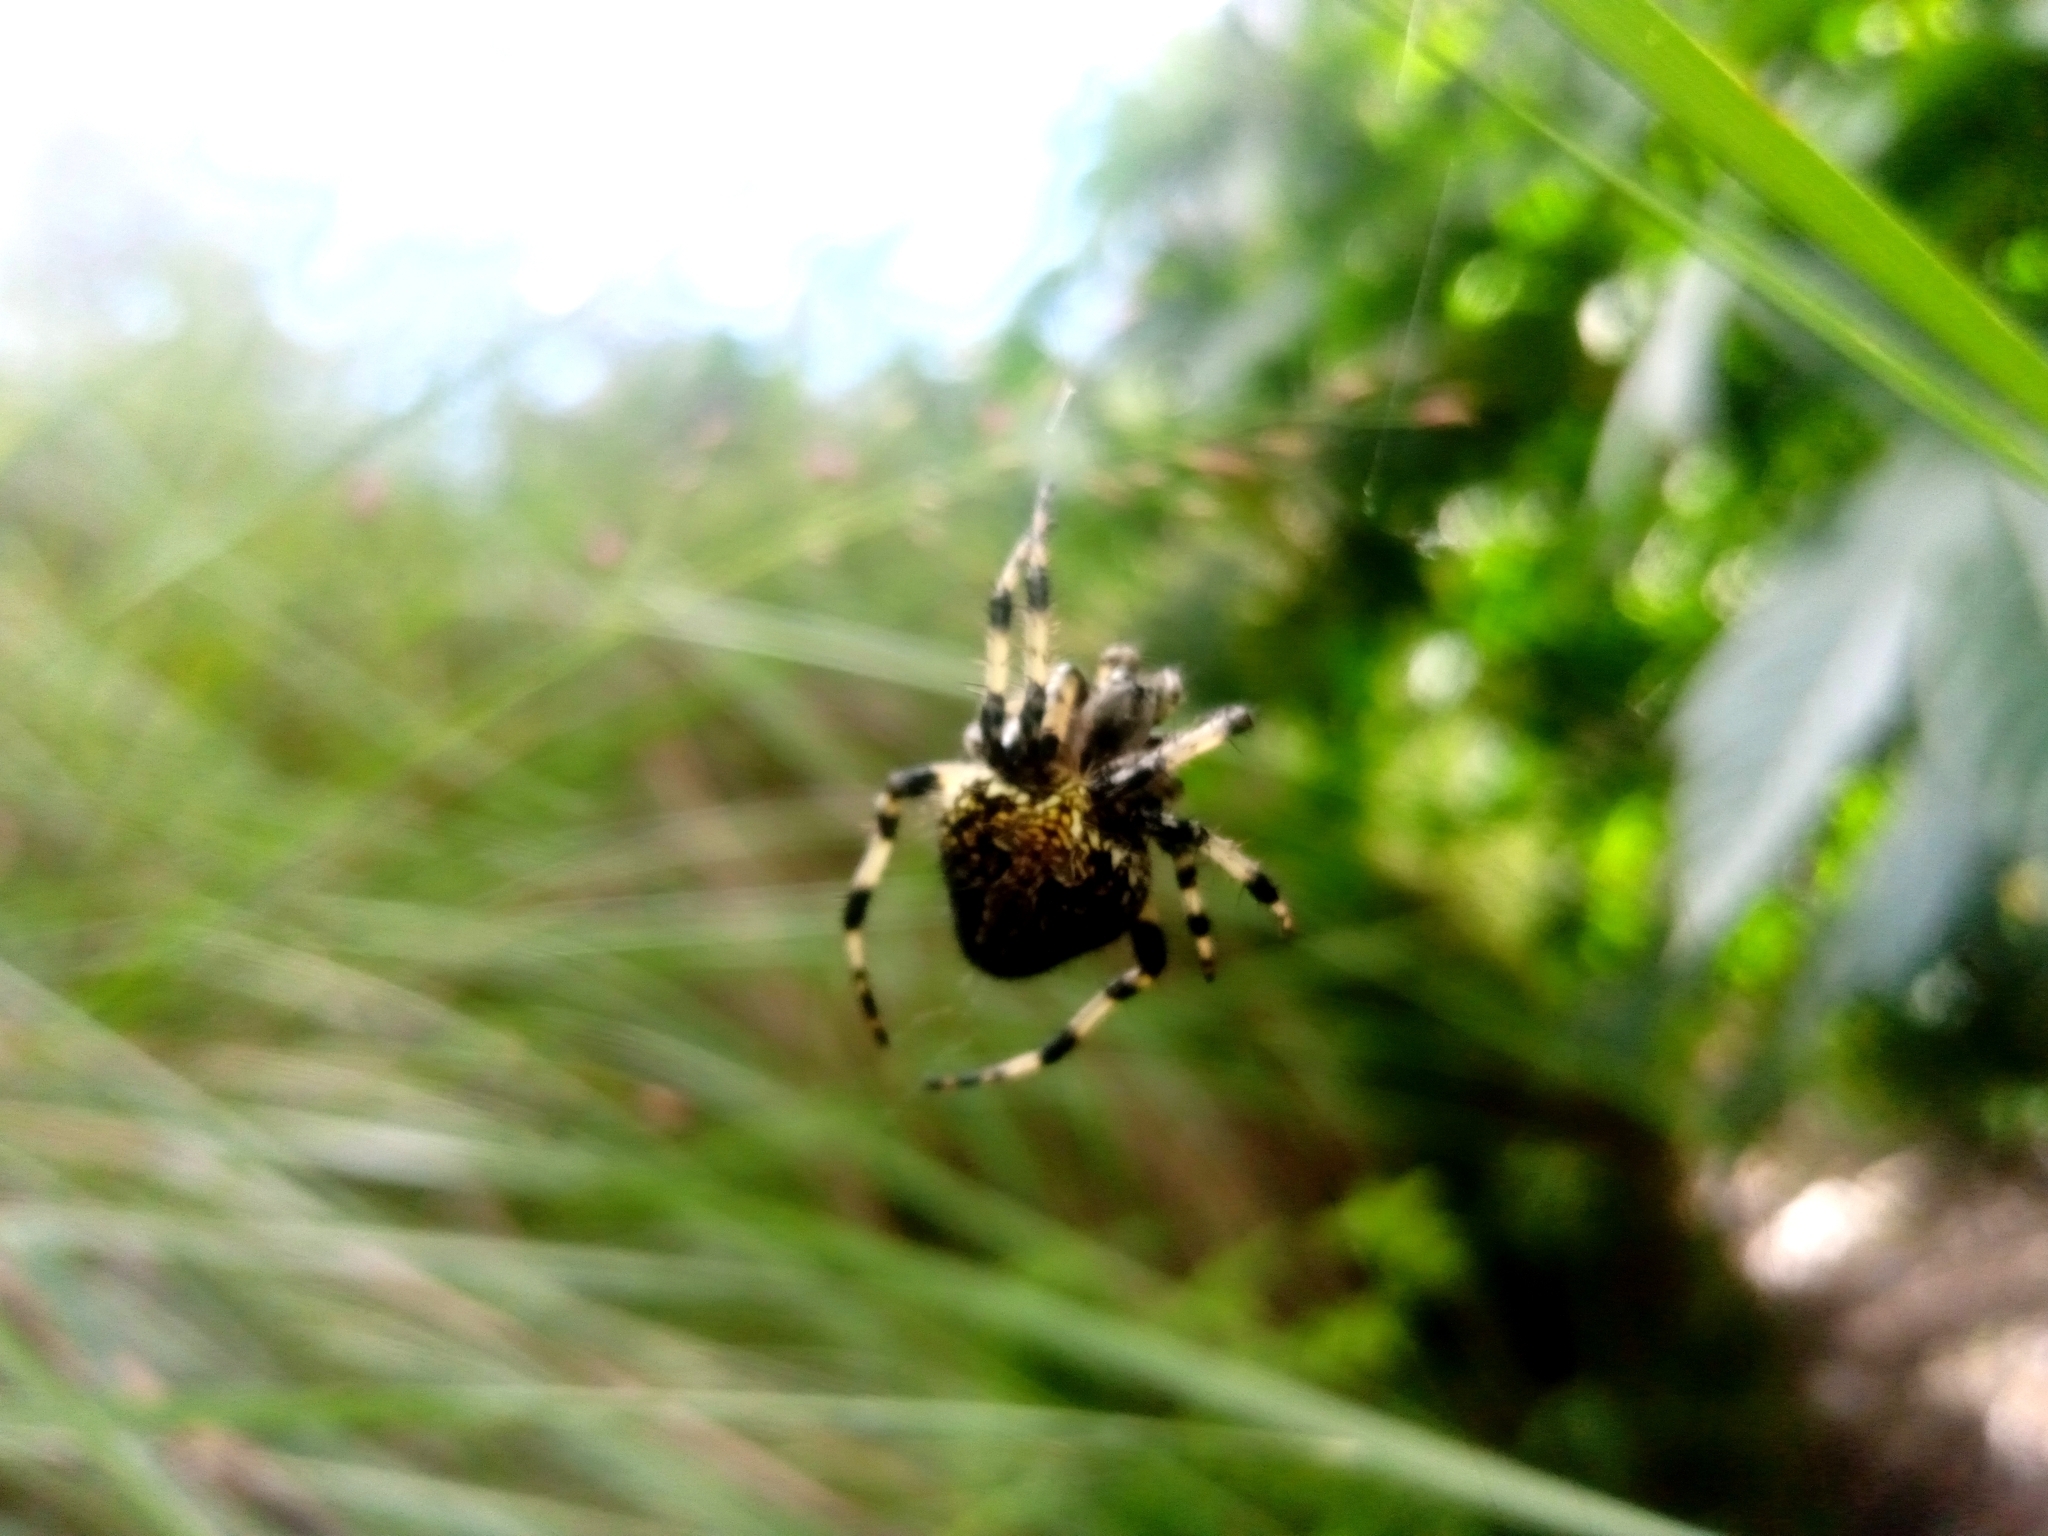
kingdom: Animalia
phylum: Arthropoda
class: Arachnida
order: Araneae
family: Araneidae
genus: Neoscona
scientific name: Neoscona orizabensis
